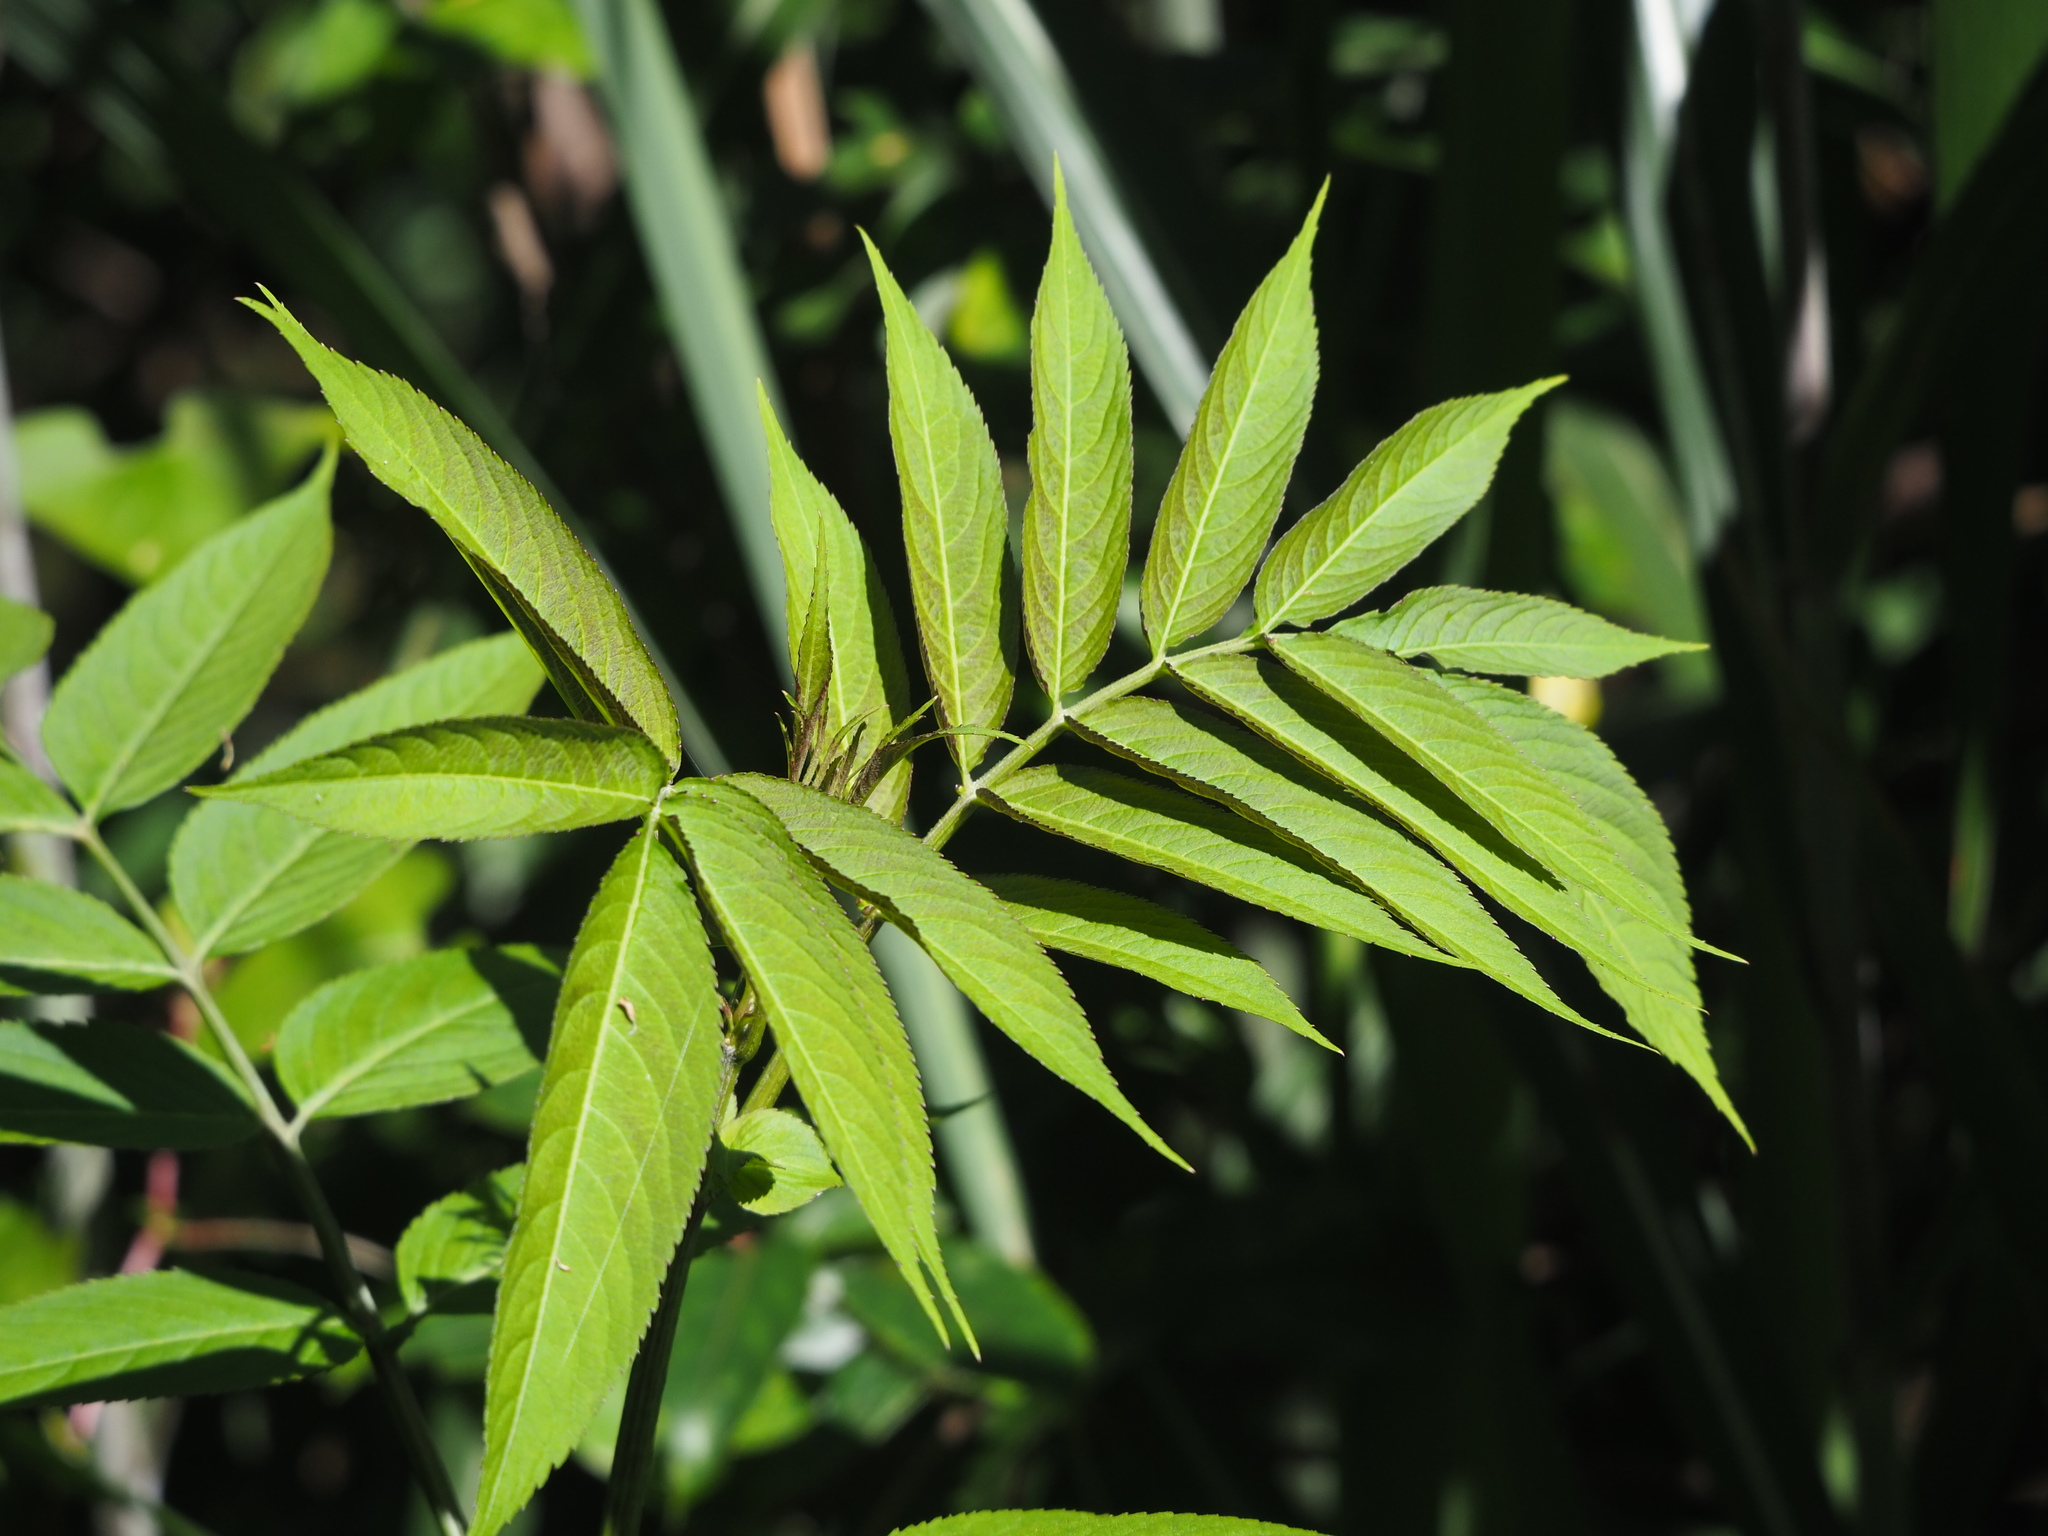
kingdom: Plantae
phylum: Tracheophyta
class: Magnoliopsida
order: Dipsacales
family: Viburnaceae
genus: Sambucus
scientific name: Sambucus javanica
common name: Chinese elder
